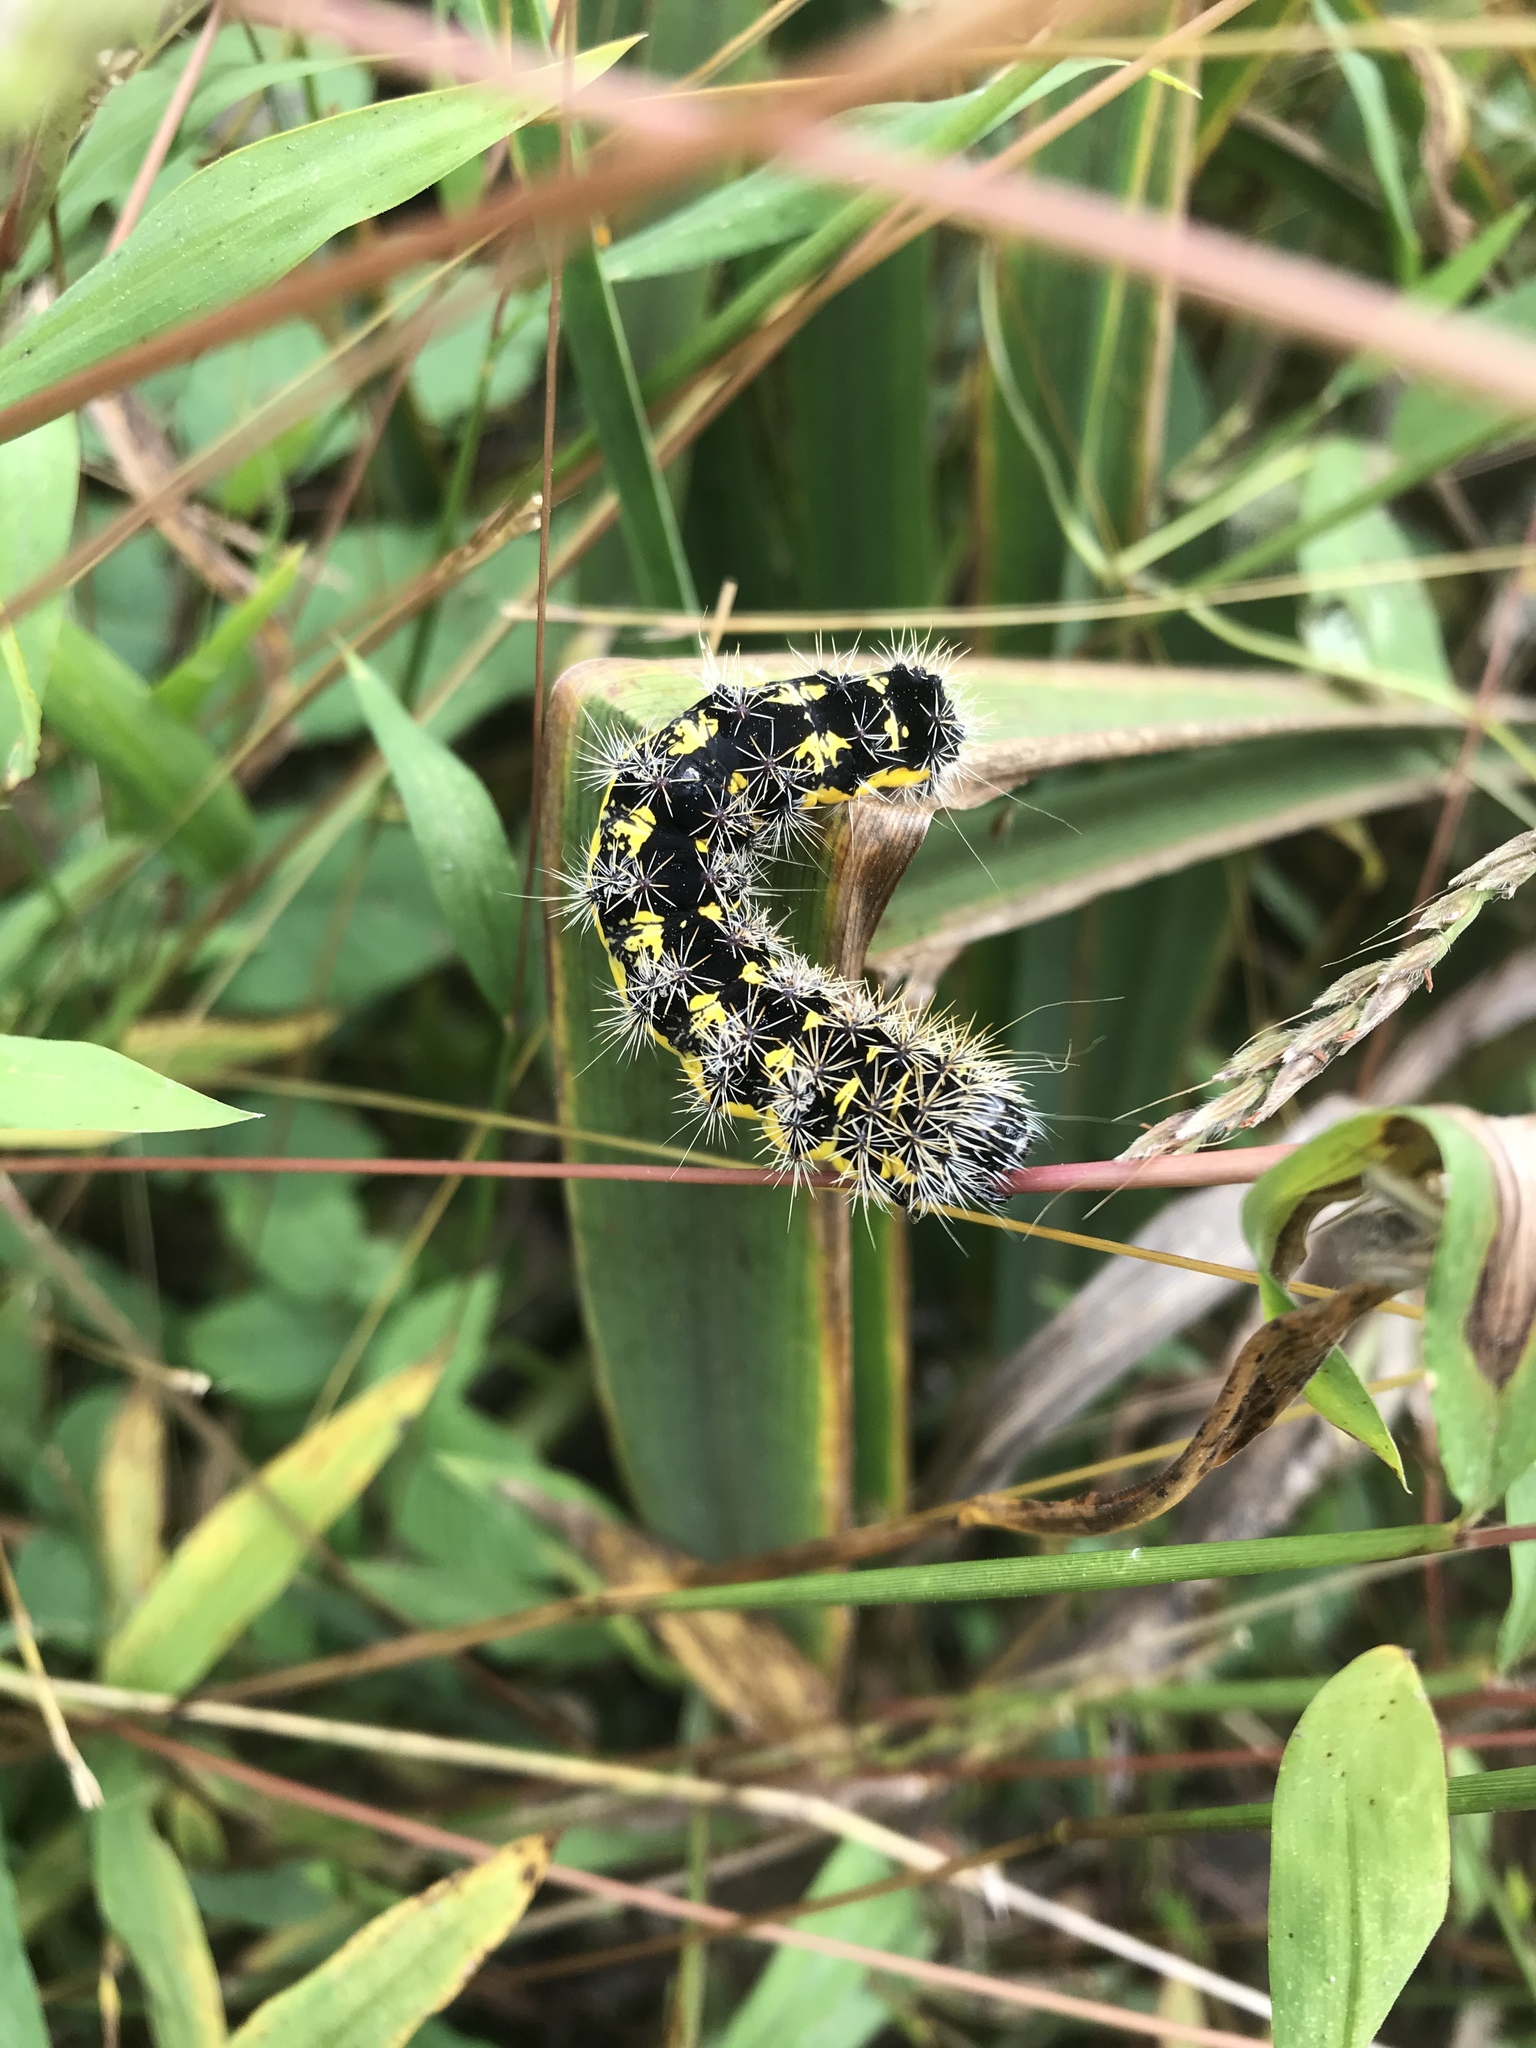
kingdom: Animalia
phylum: Arthropoda
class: Insecta
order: Lepidoptera
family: Noctuidae
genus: Acronicta
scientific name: Acronicta oblinita
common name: Smeared dagger
